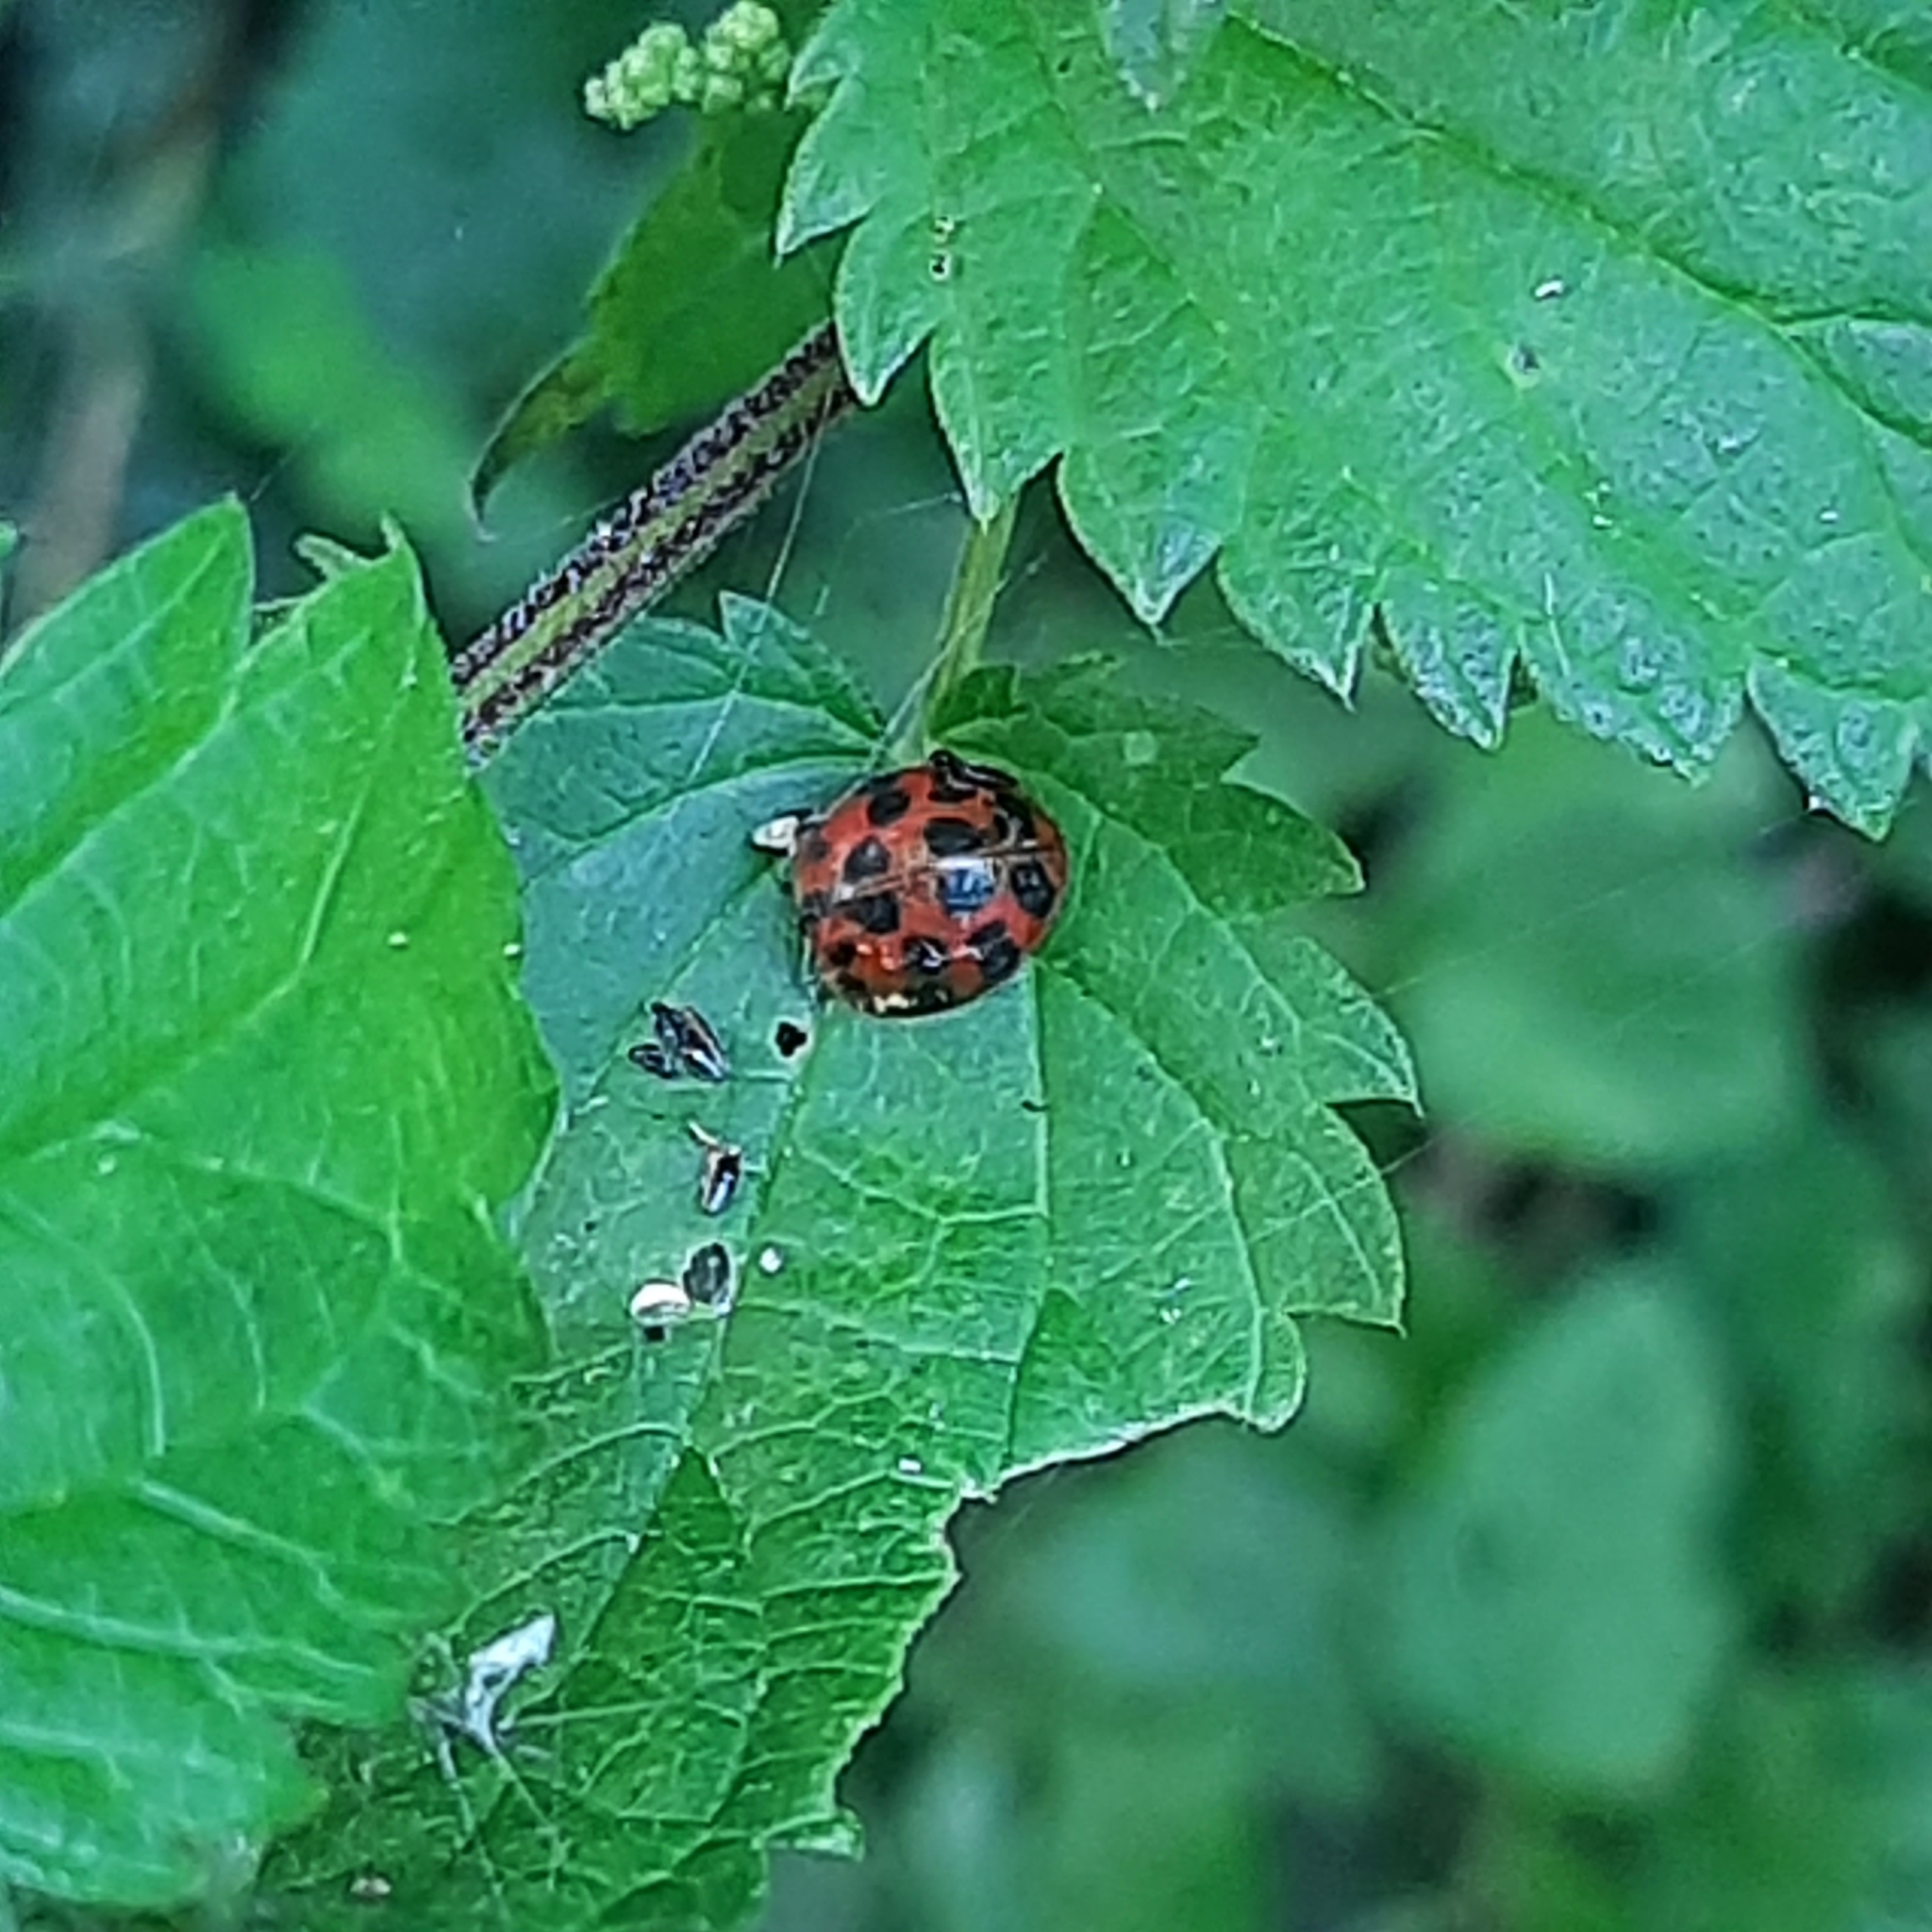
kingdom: Animalia
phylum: Arthropoda
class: Insecta
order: Coleoptera
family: Coccinellidae
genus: Harmonia
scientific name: Harmonia axyridis
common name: Harlequin ladybird
